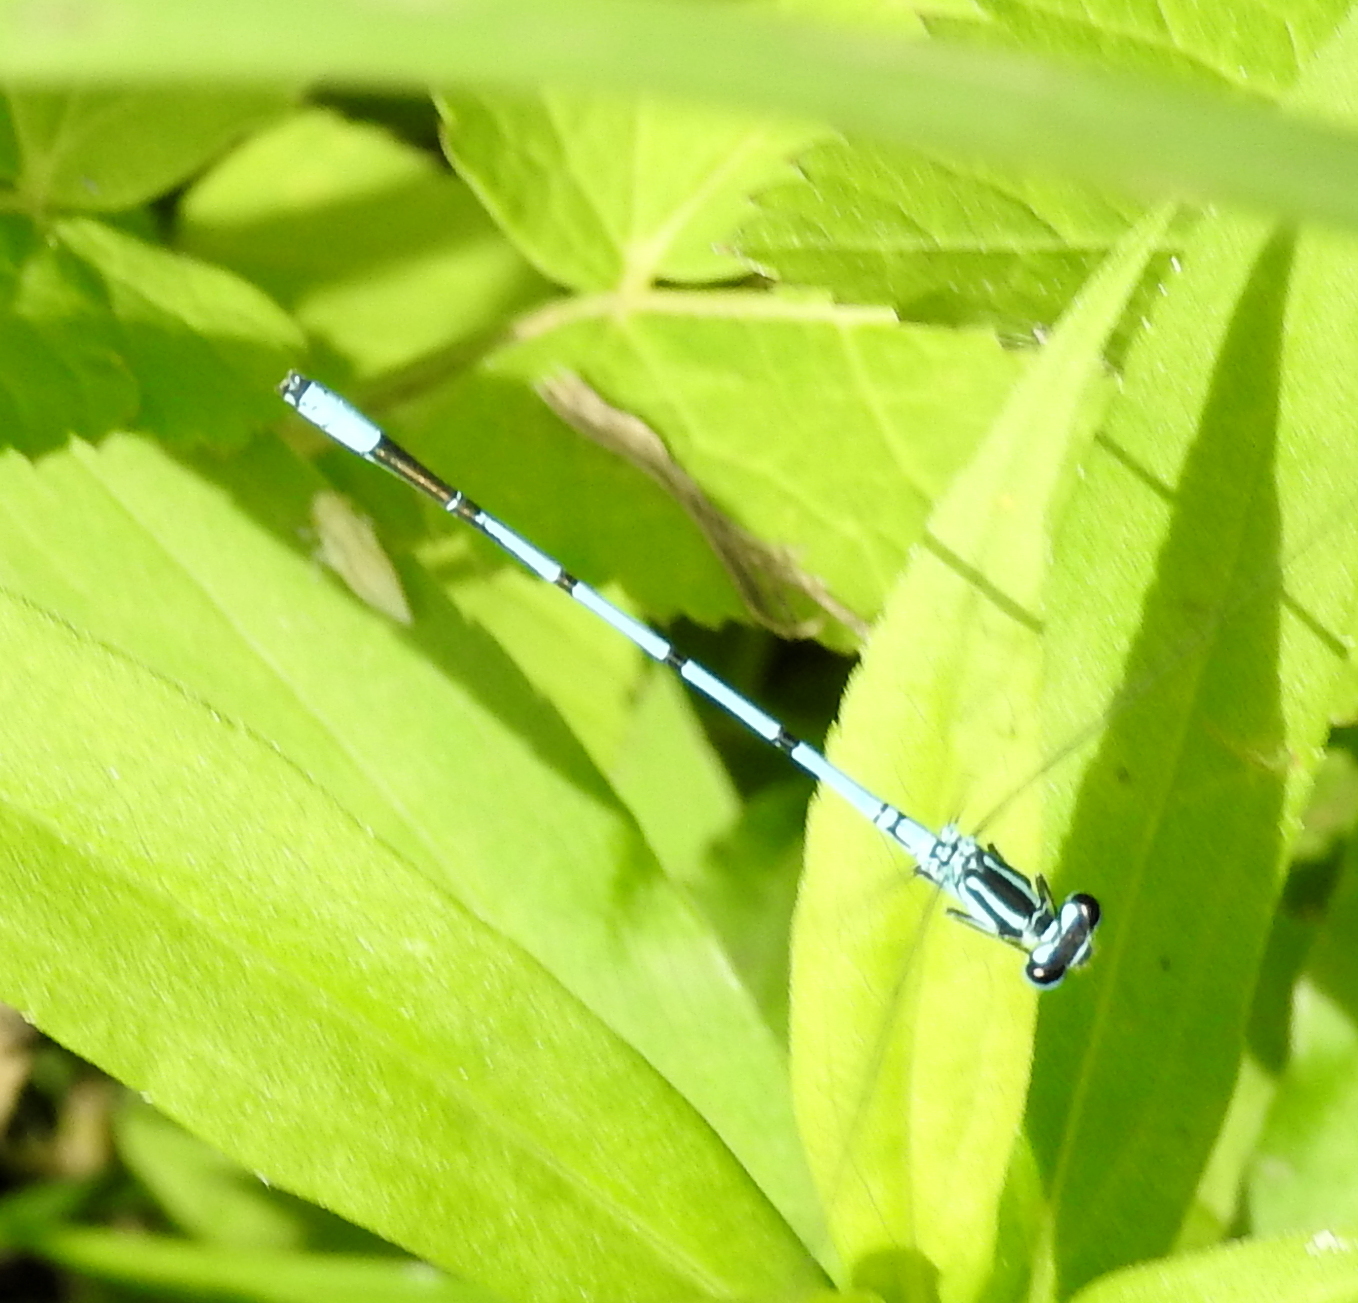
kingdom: Animalia
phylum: Arthropoda
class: Insecta
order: Odonata
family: Coenagrionidae
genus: Coenagrion
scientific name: Coenagrion puella
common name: Azure damselfly
